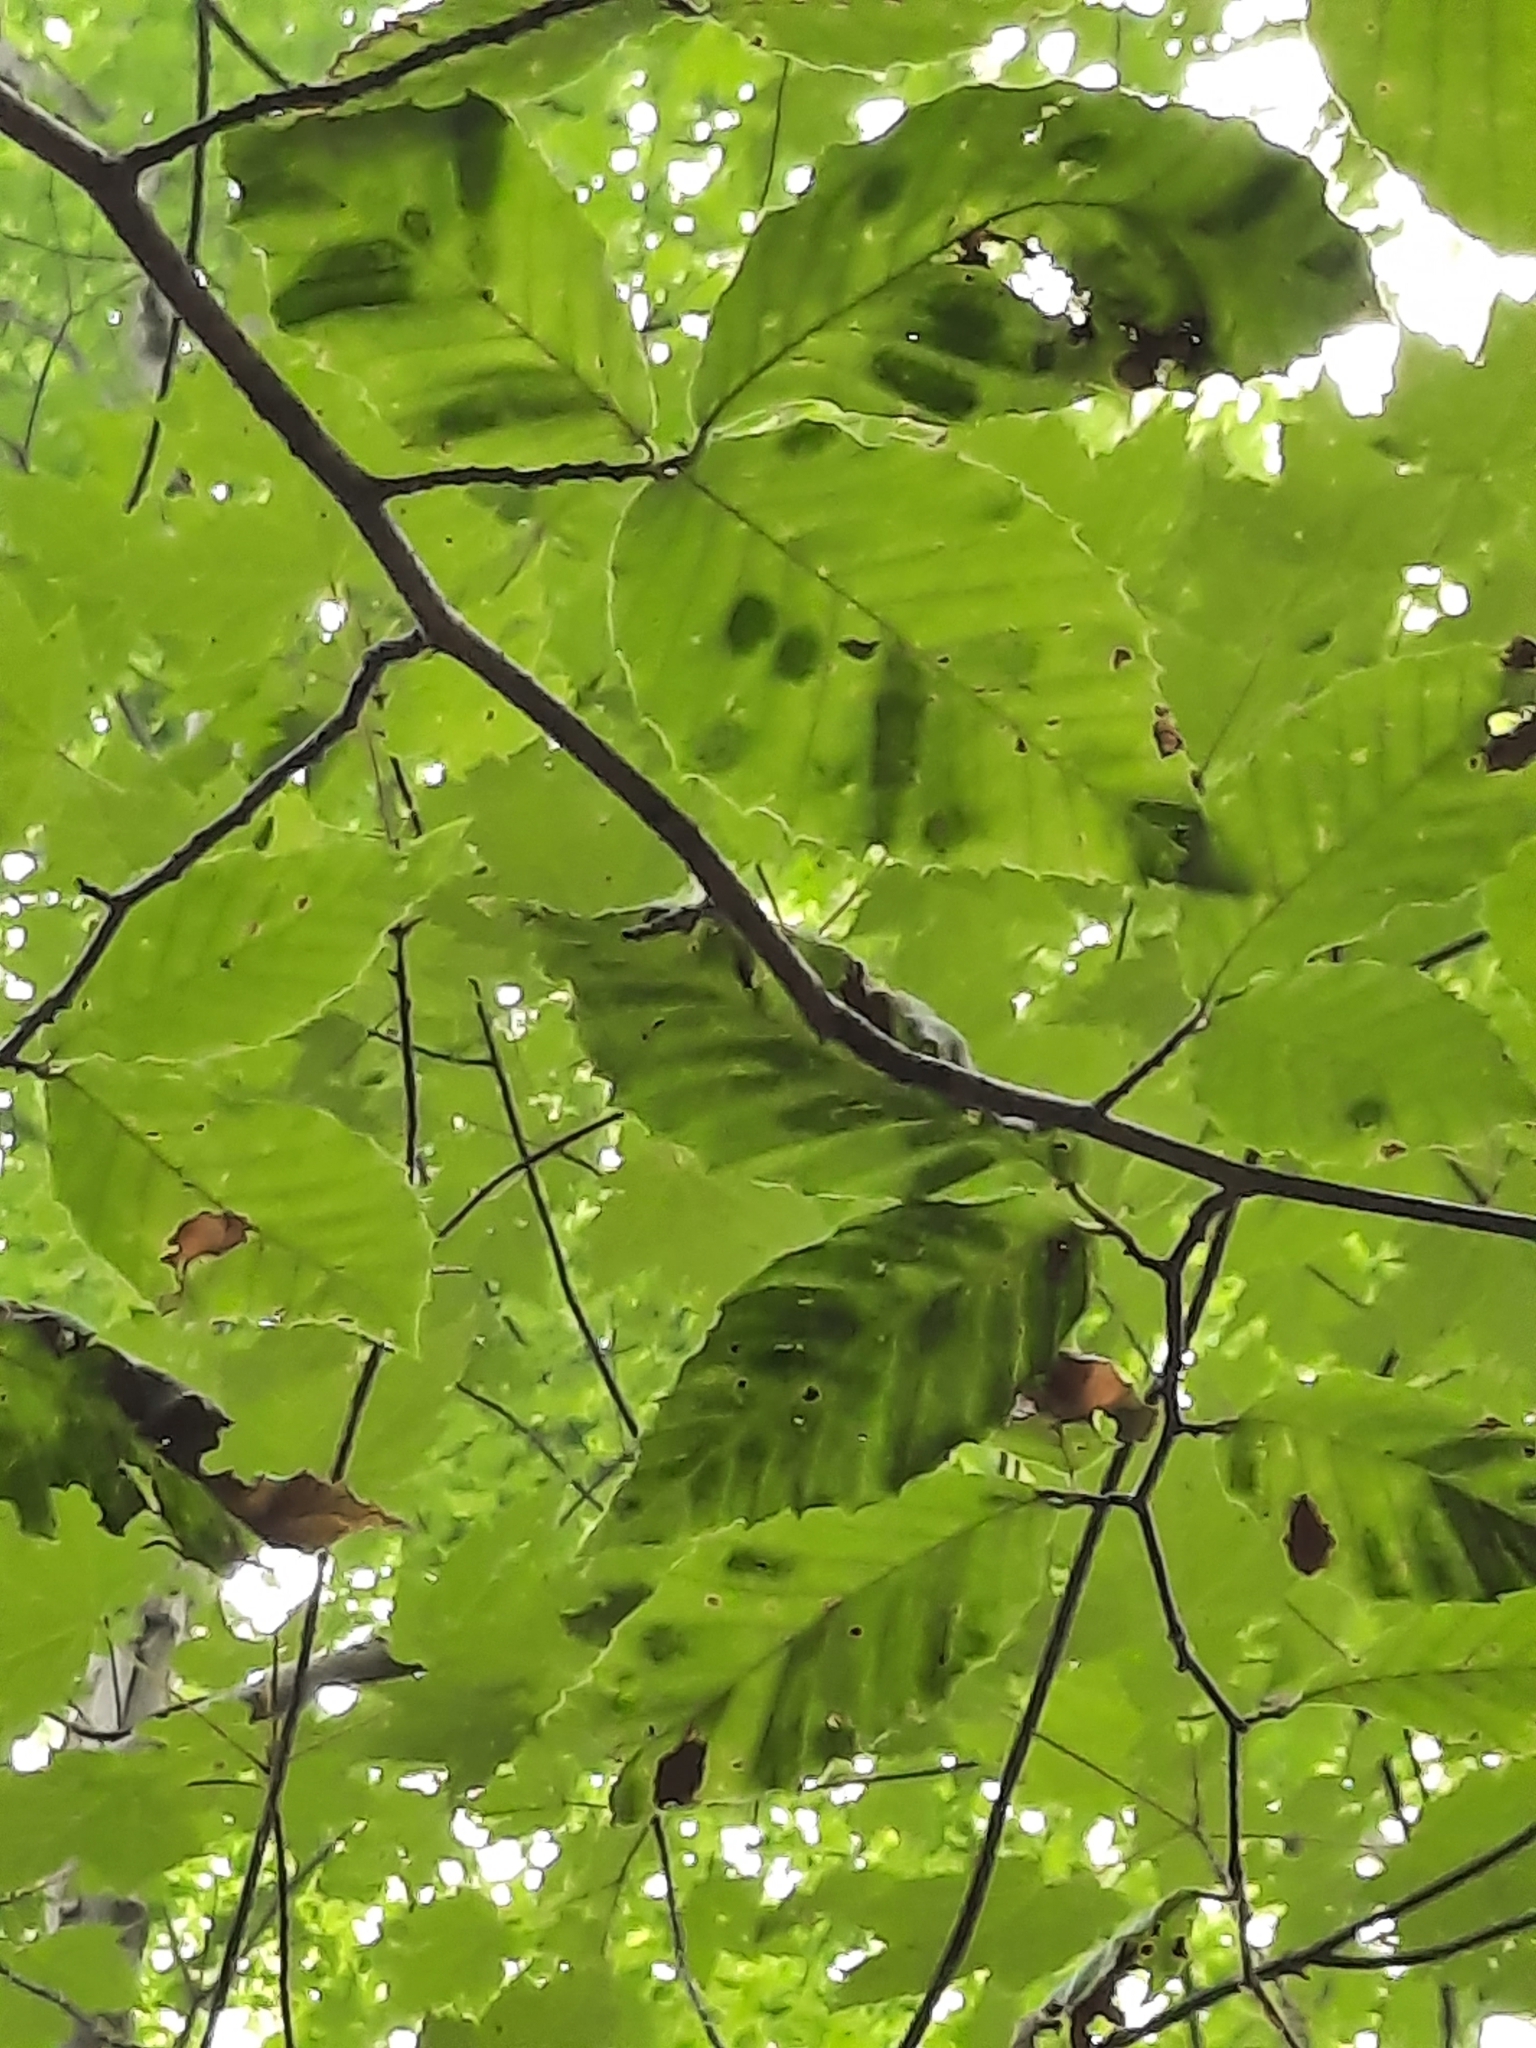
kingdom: Animalia
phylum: Nematoda
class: Chromadorea
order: Rhabditida
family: Anguinidae
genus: Litylenchus
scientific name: Litylenchus crenatae
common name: Beech leaf disease
